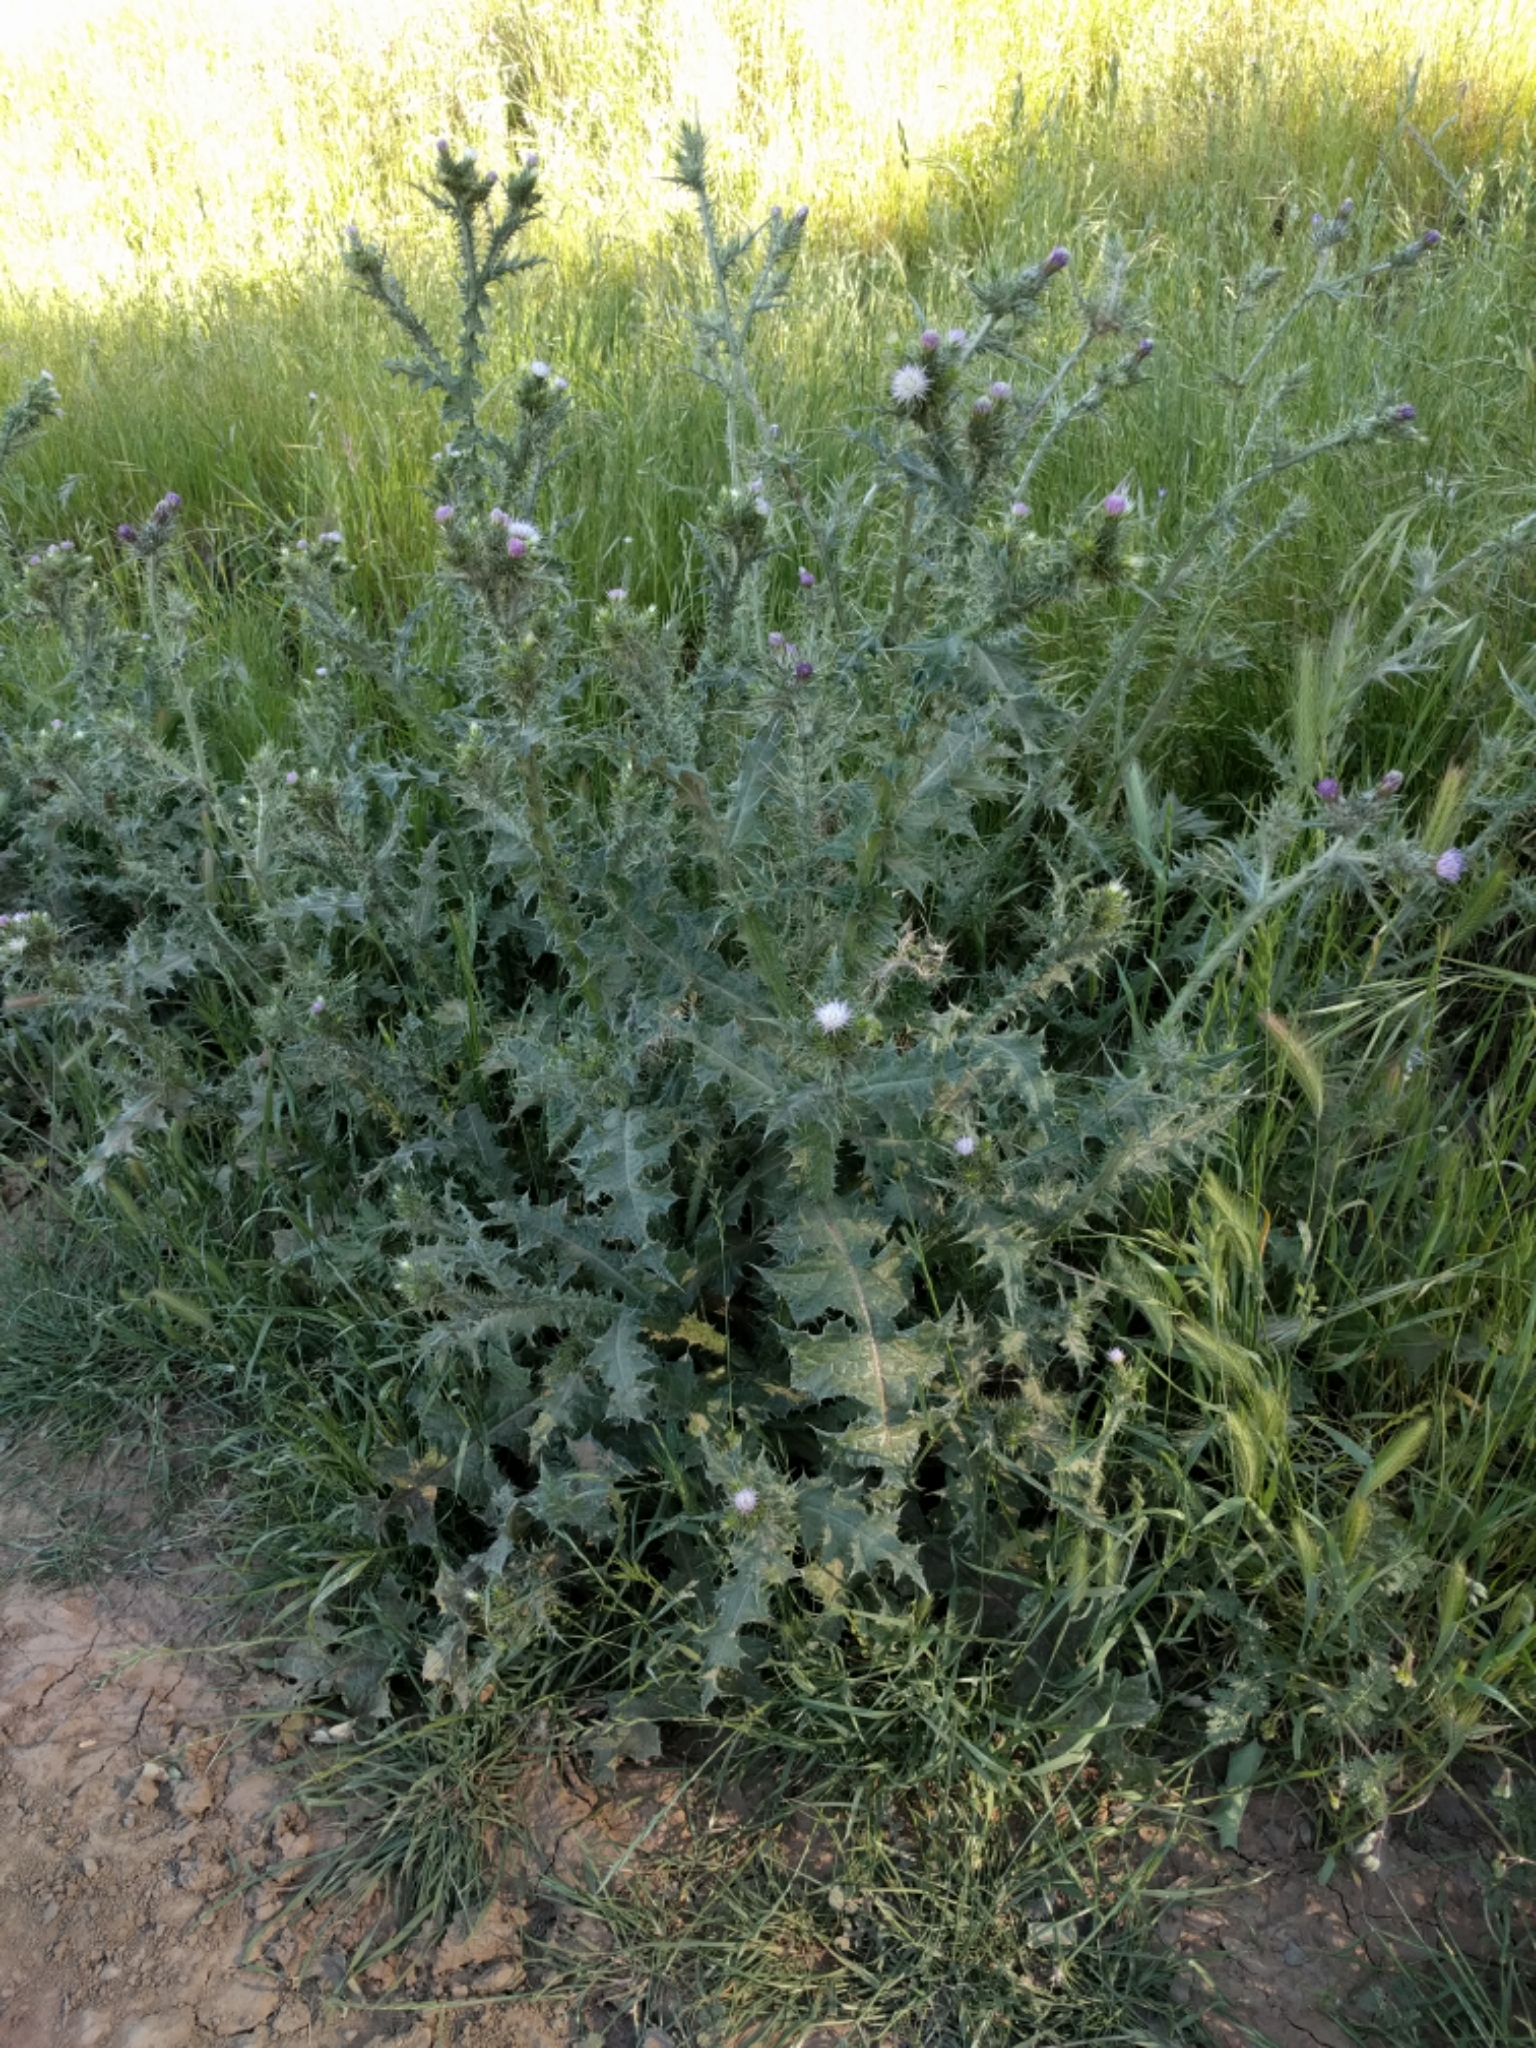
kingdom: Plantae
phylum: Tracheophyta
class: Magnoliopsida
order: Asterales
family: Asteraceae
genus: Carduus
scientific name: Carduus tenuiflorus
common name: Slender thistle
